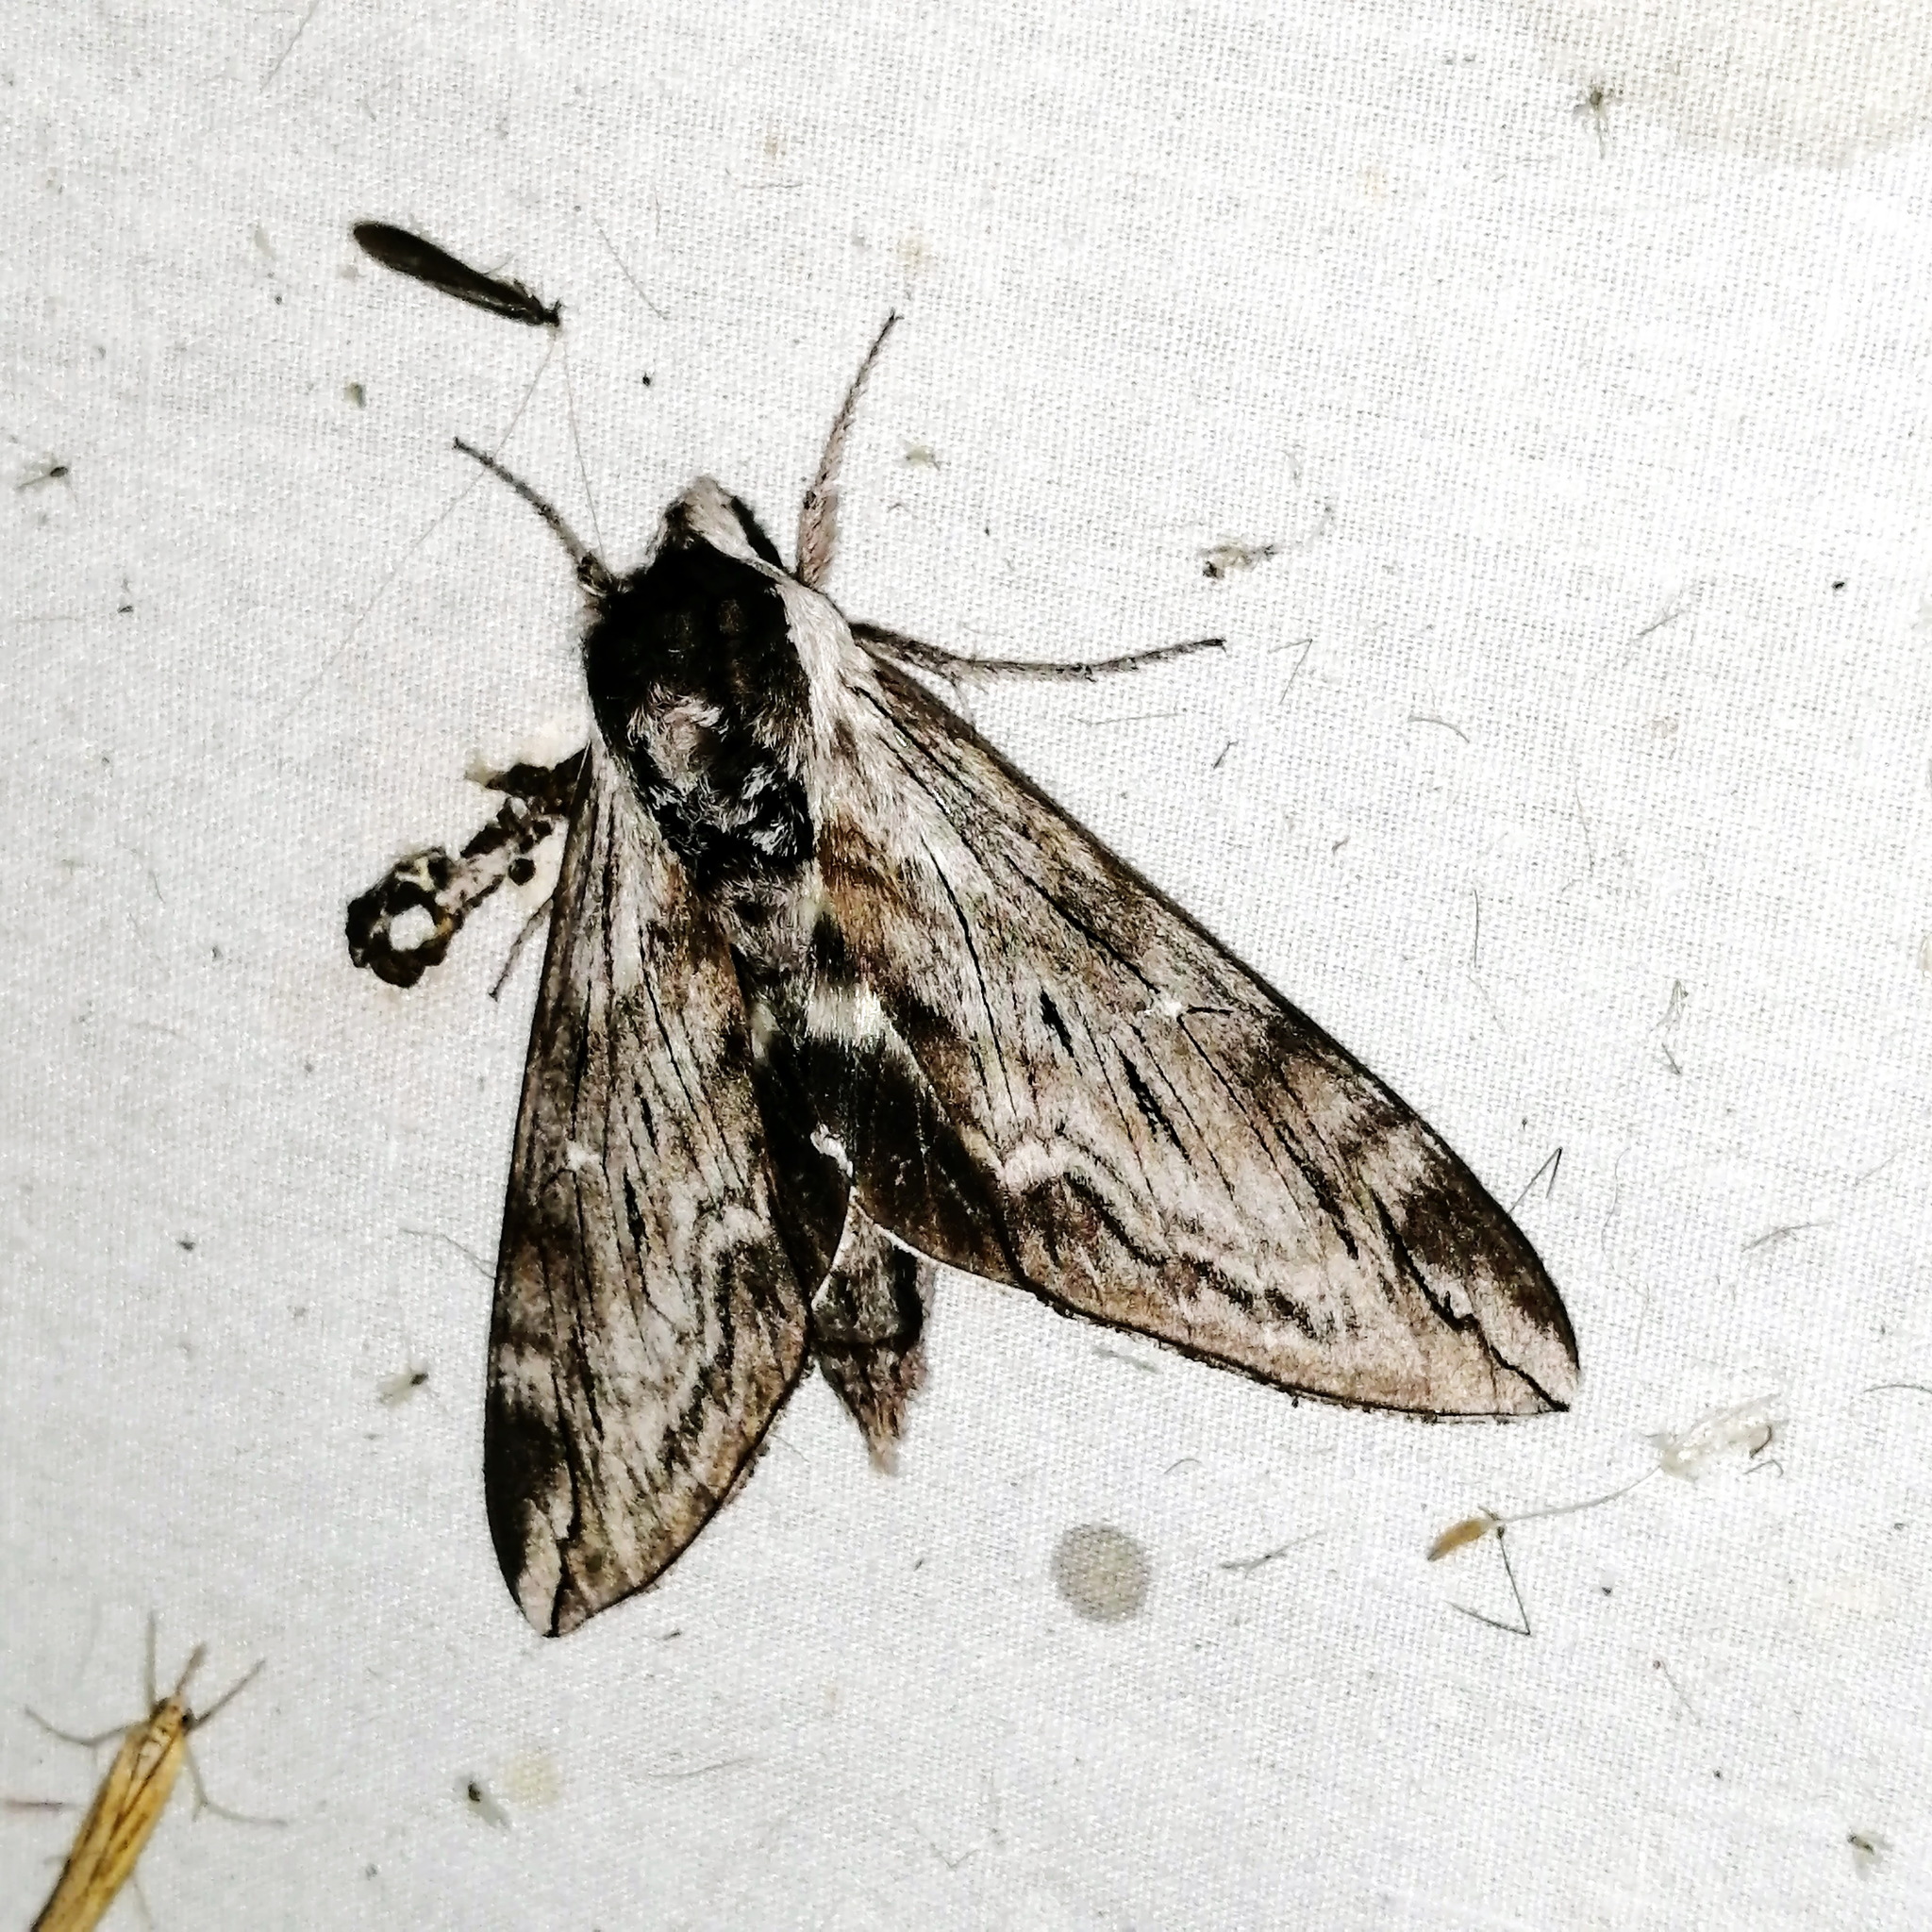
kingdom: Animalia
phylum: Arthropoda
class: Insecta
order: Lepidoptera
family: Sphingidae
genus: Sphinx
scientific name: Sphinx poecila
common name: Northern apple sphinx
